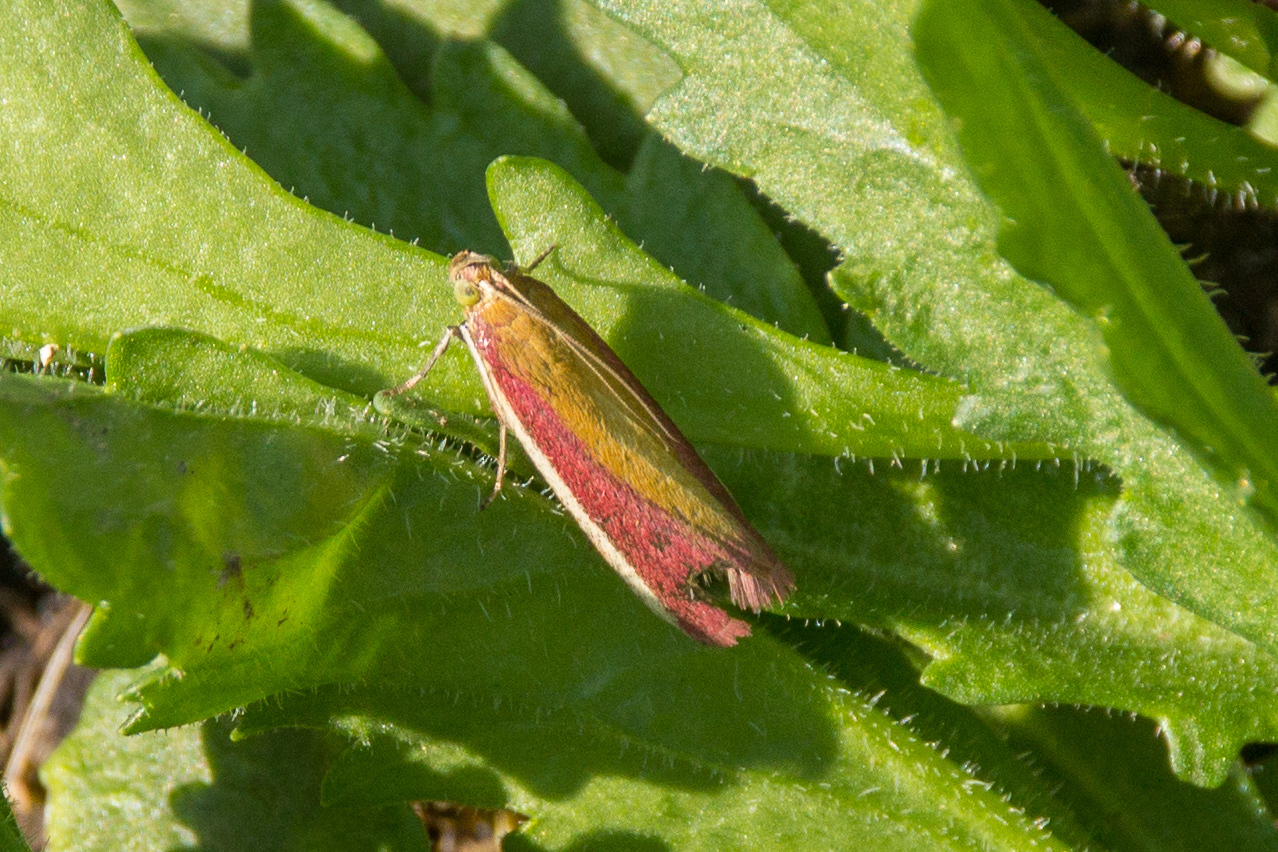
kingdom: Animalia
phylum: Arthropoda
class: Insecta
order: Lepidoptera
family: Pyralidae
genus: Oncocera
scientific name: Oncocera semirubella
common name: Rosy-striped knot-horn
